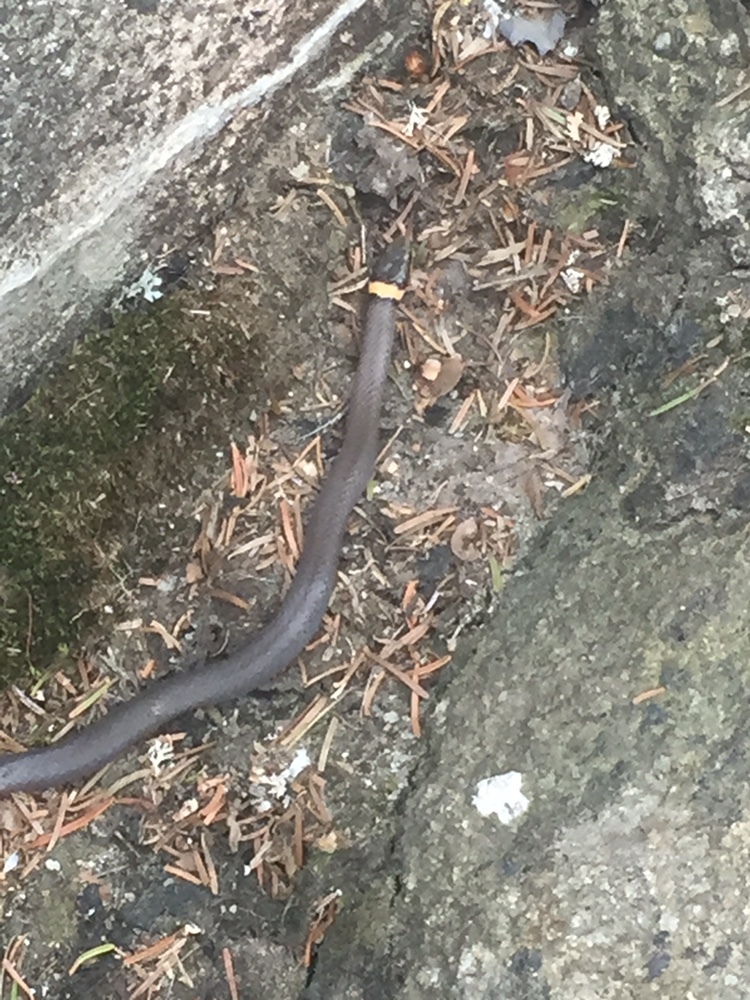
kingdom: Animalia
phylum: Chordata
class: Squamata
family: Colubridae
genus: Diadophis
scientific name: Diadophis punctatus
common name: Ringneck snake
